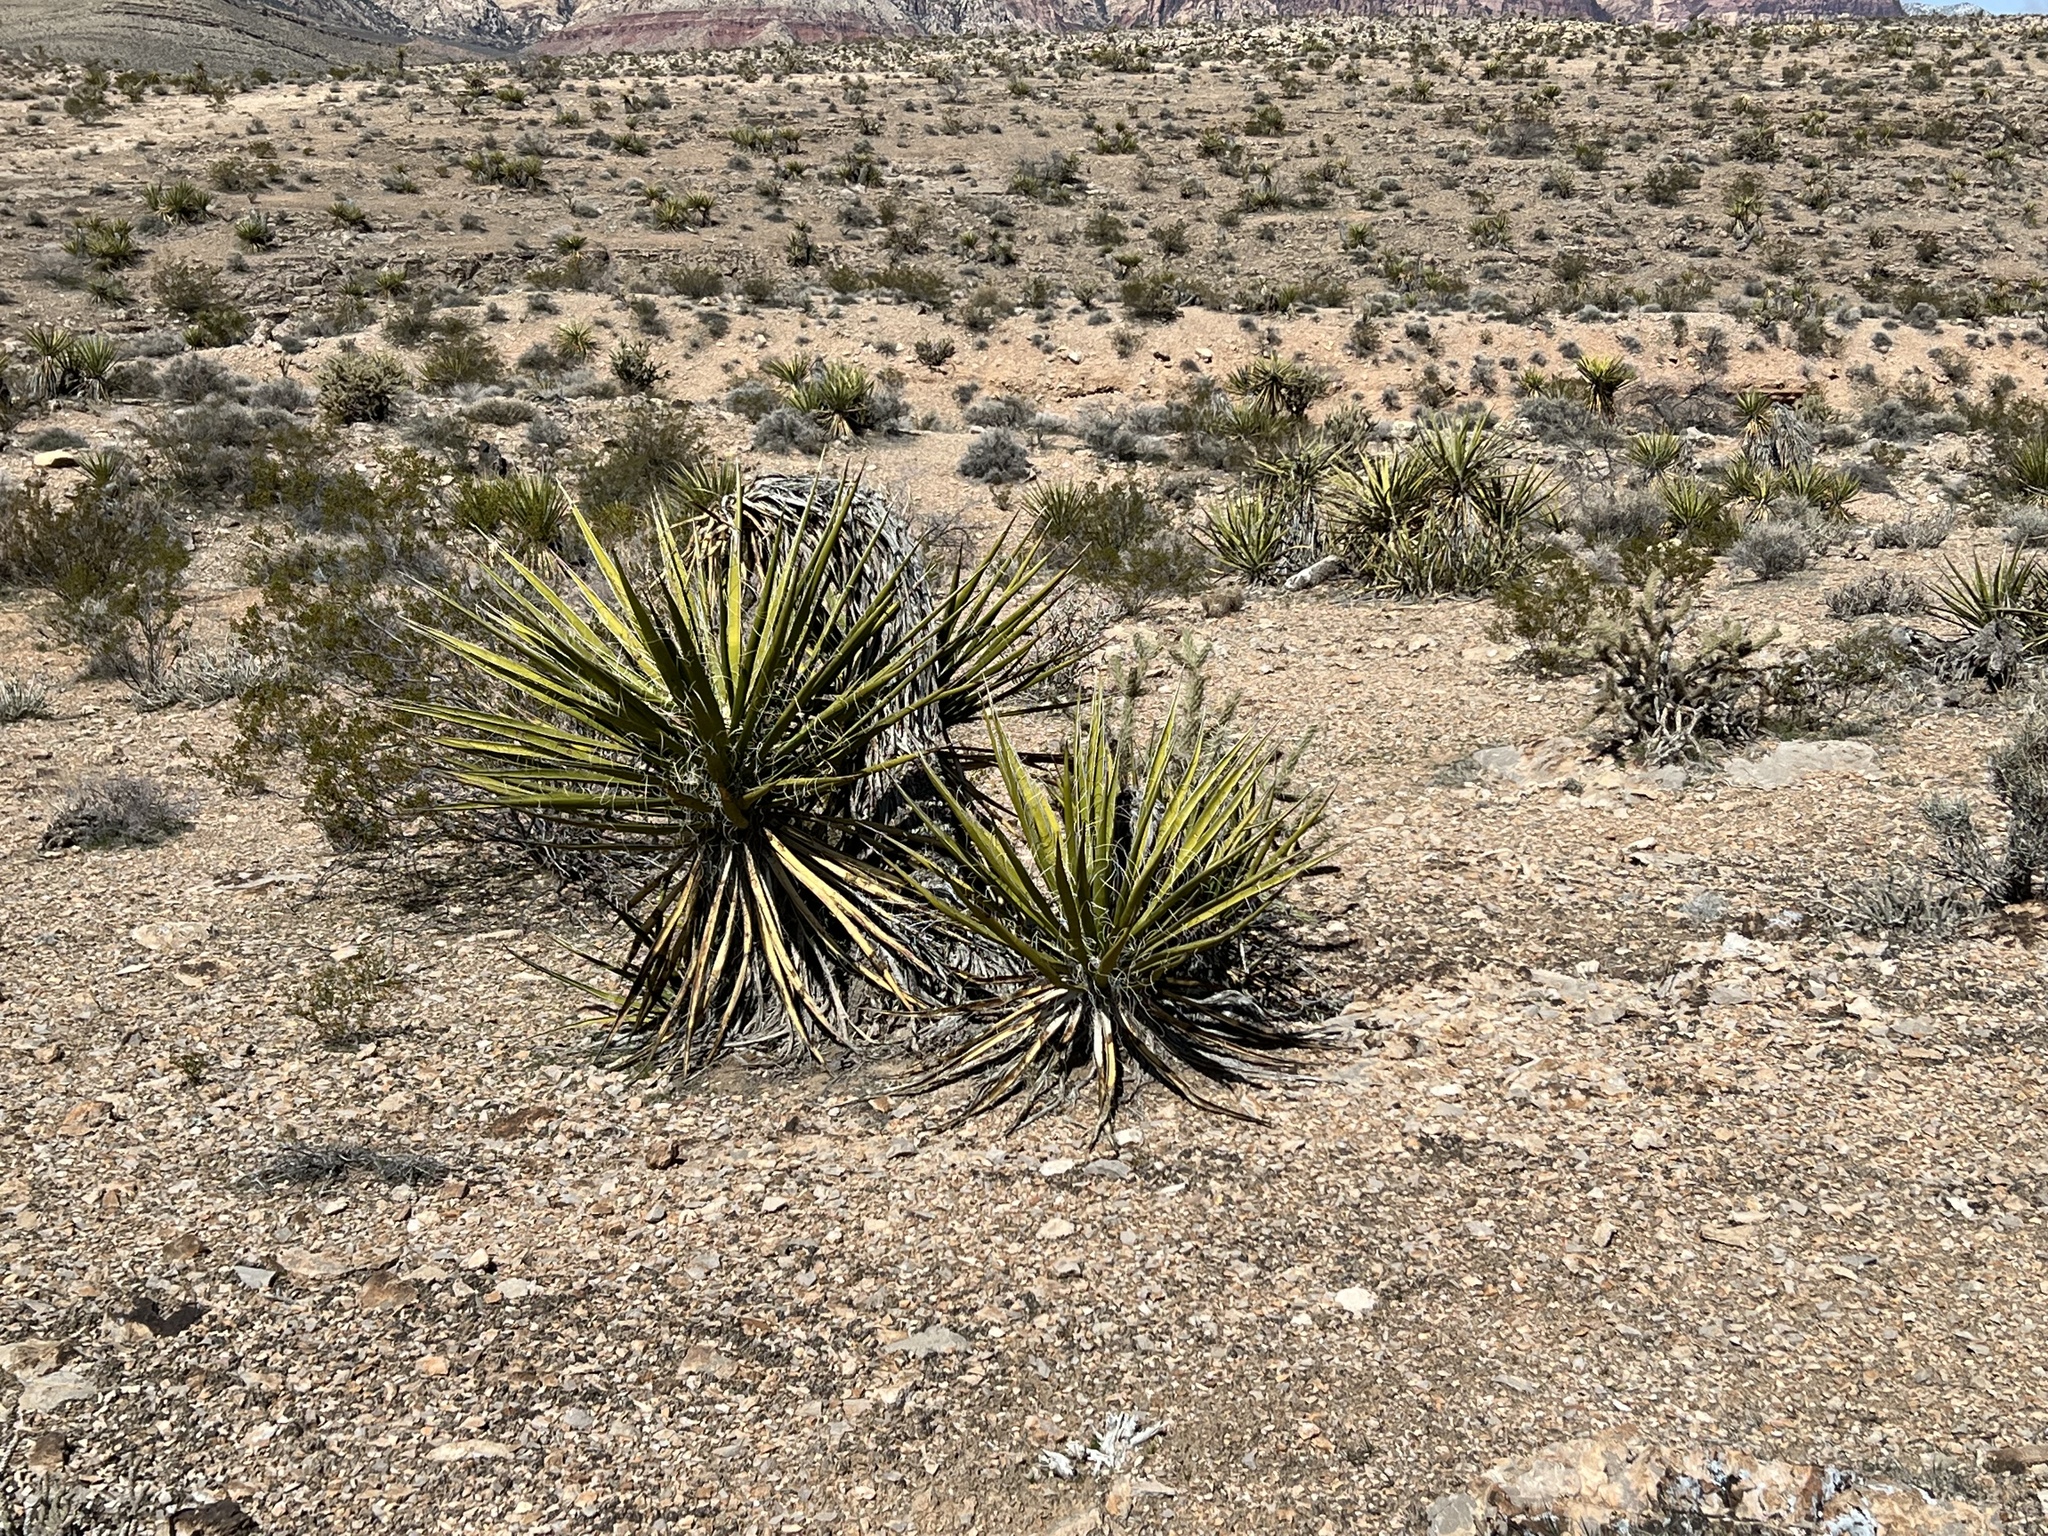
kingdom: Plantae
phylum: Tracheophyta
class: Liliopsida
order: Asparagales
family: Asparagaceae
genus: Yucca
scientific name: Yucca schidigera
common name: Mojave yucca
